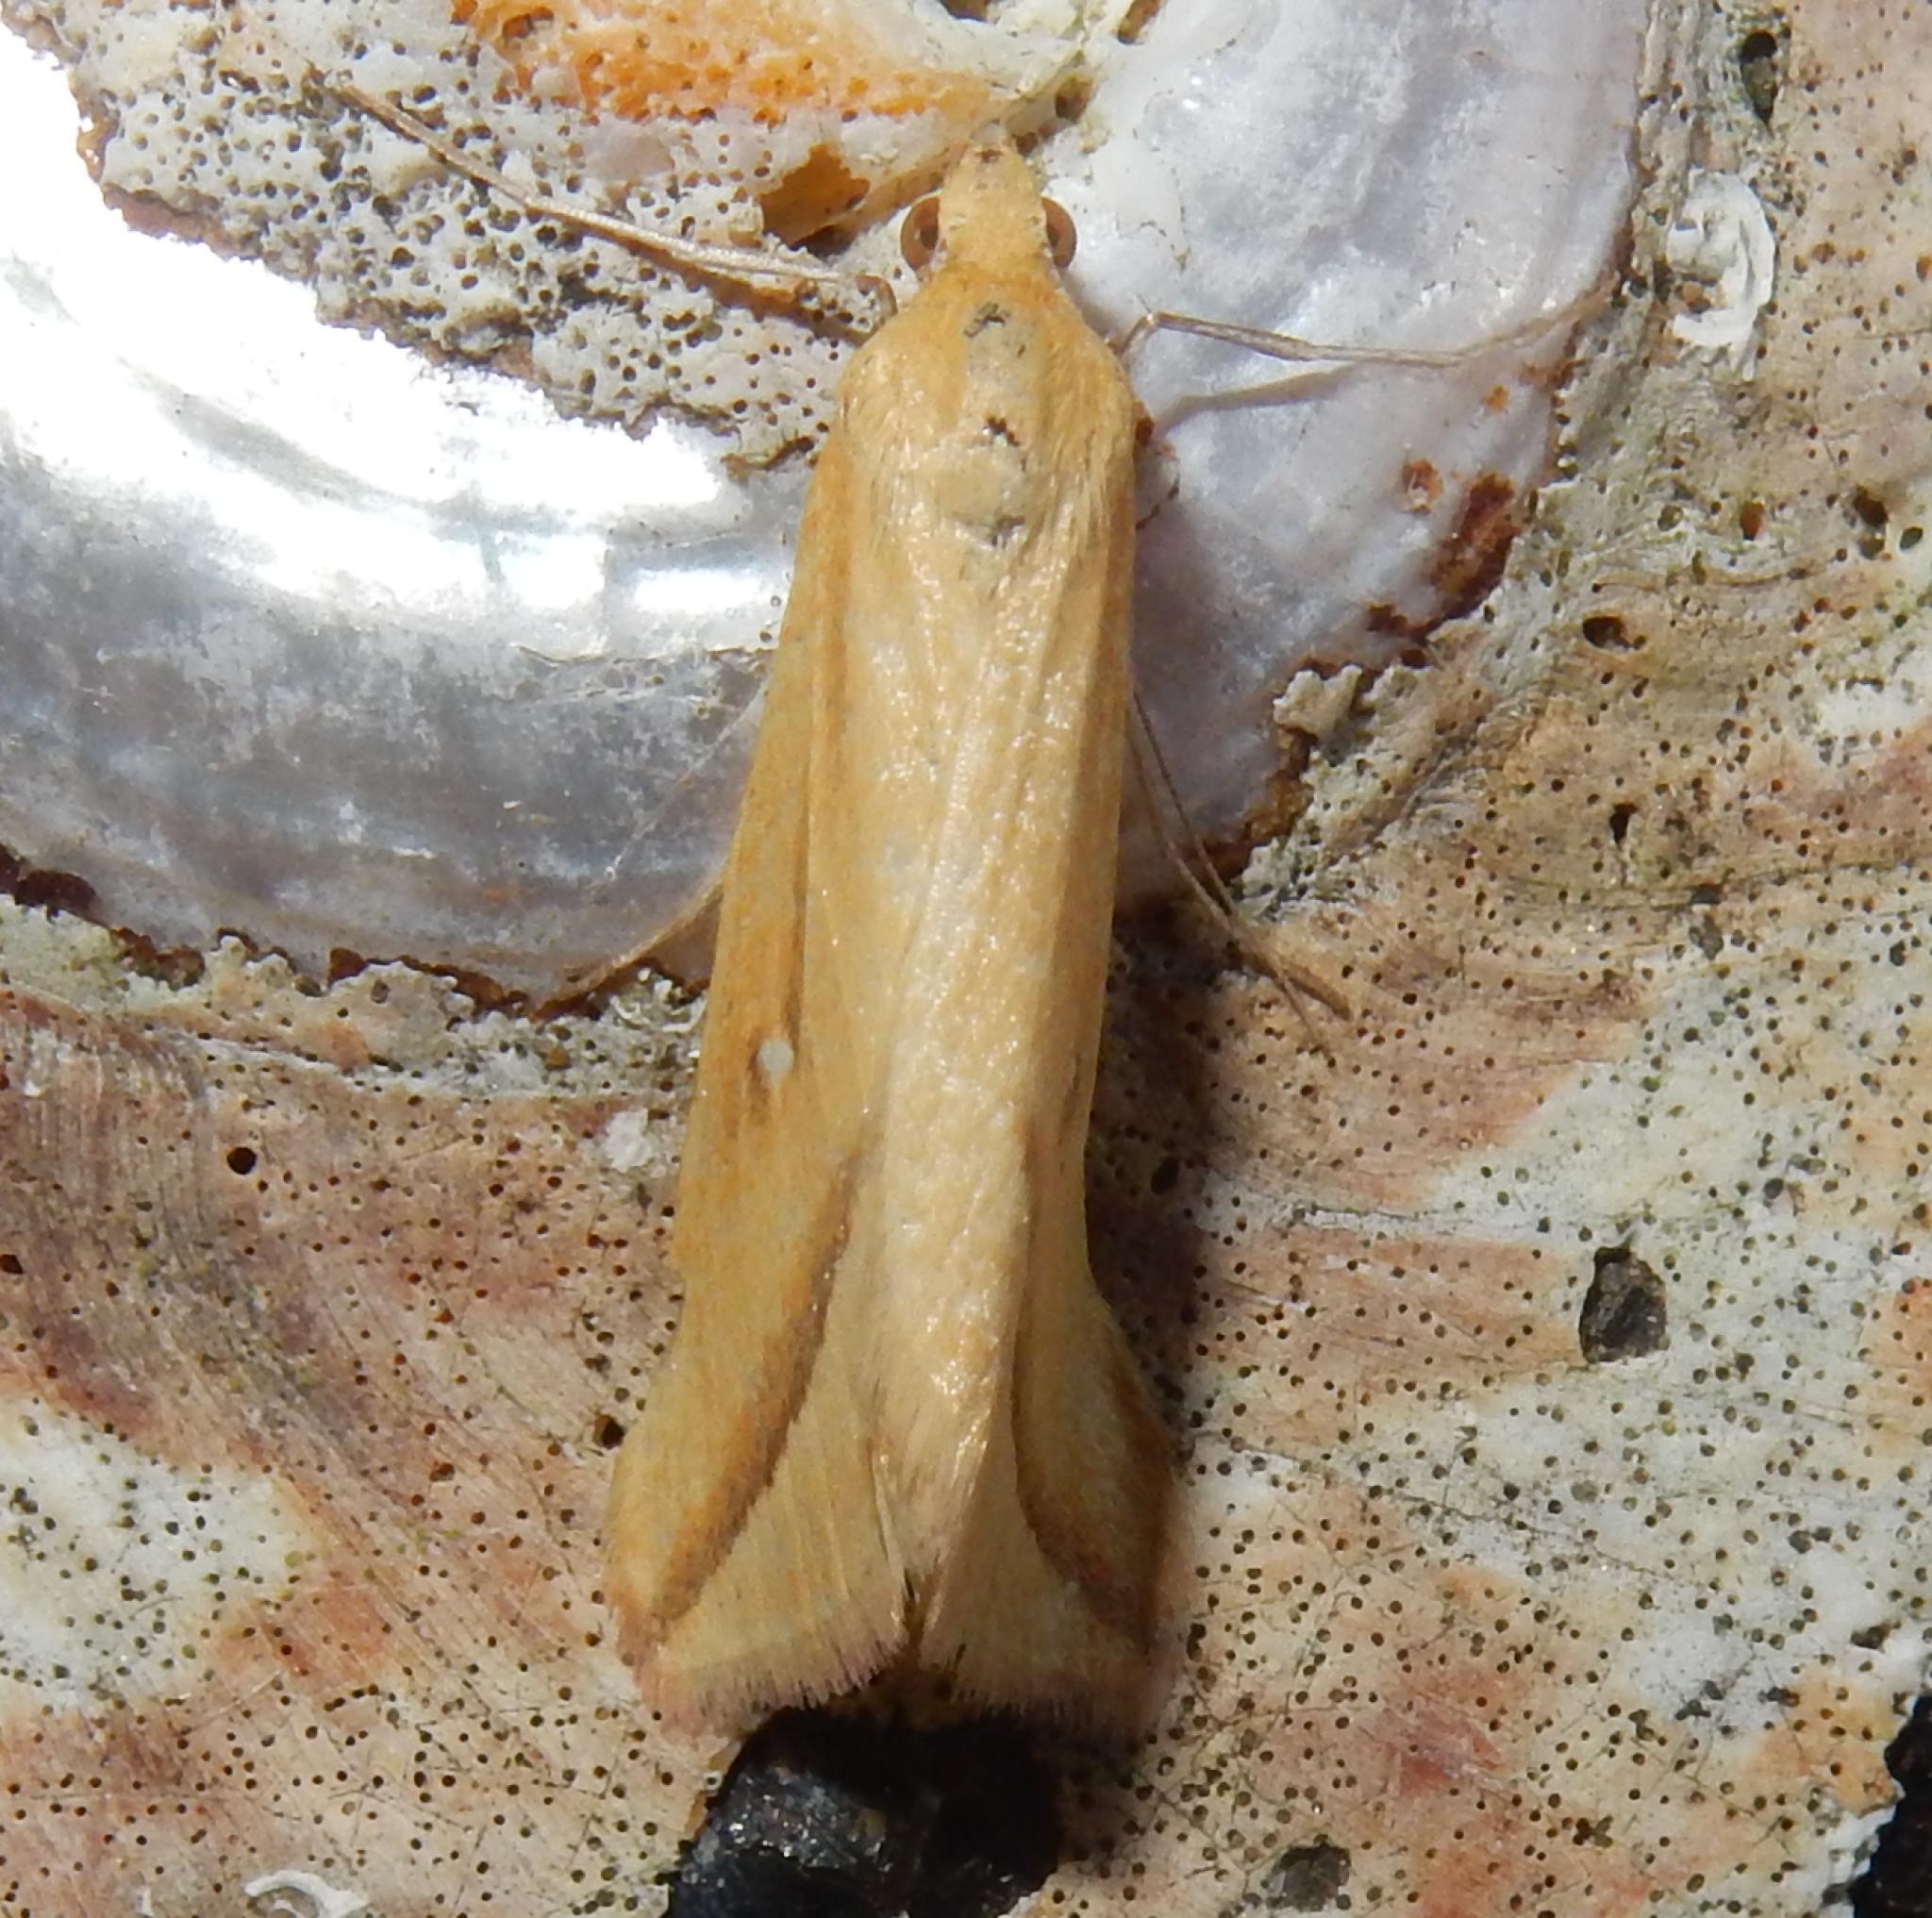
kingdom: Animalia
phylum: Arthropoda
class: Insecta
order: Lepidoptera
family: Geometridae
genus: Rhodometra
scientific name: Rhodometra participata
